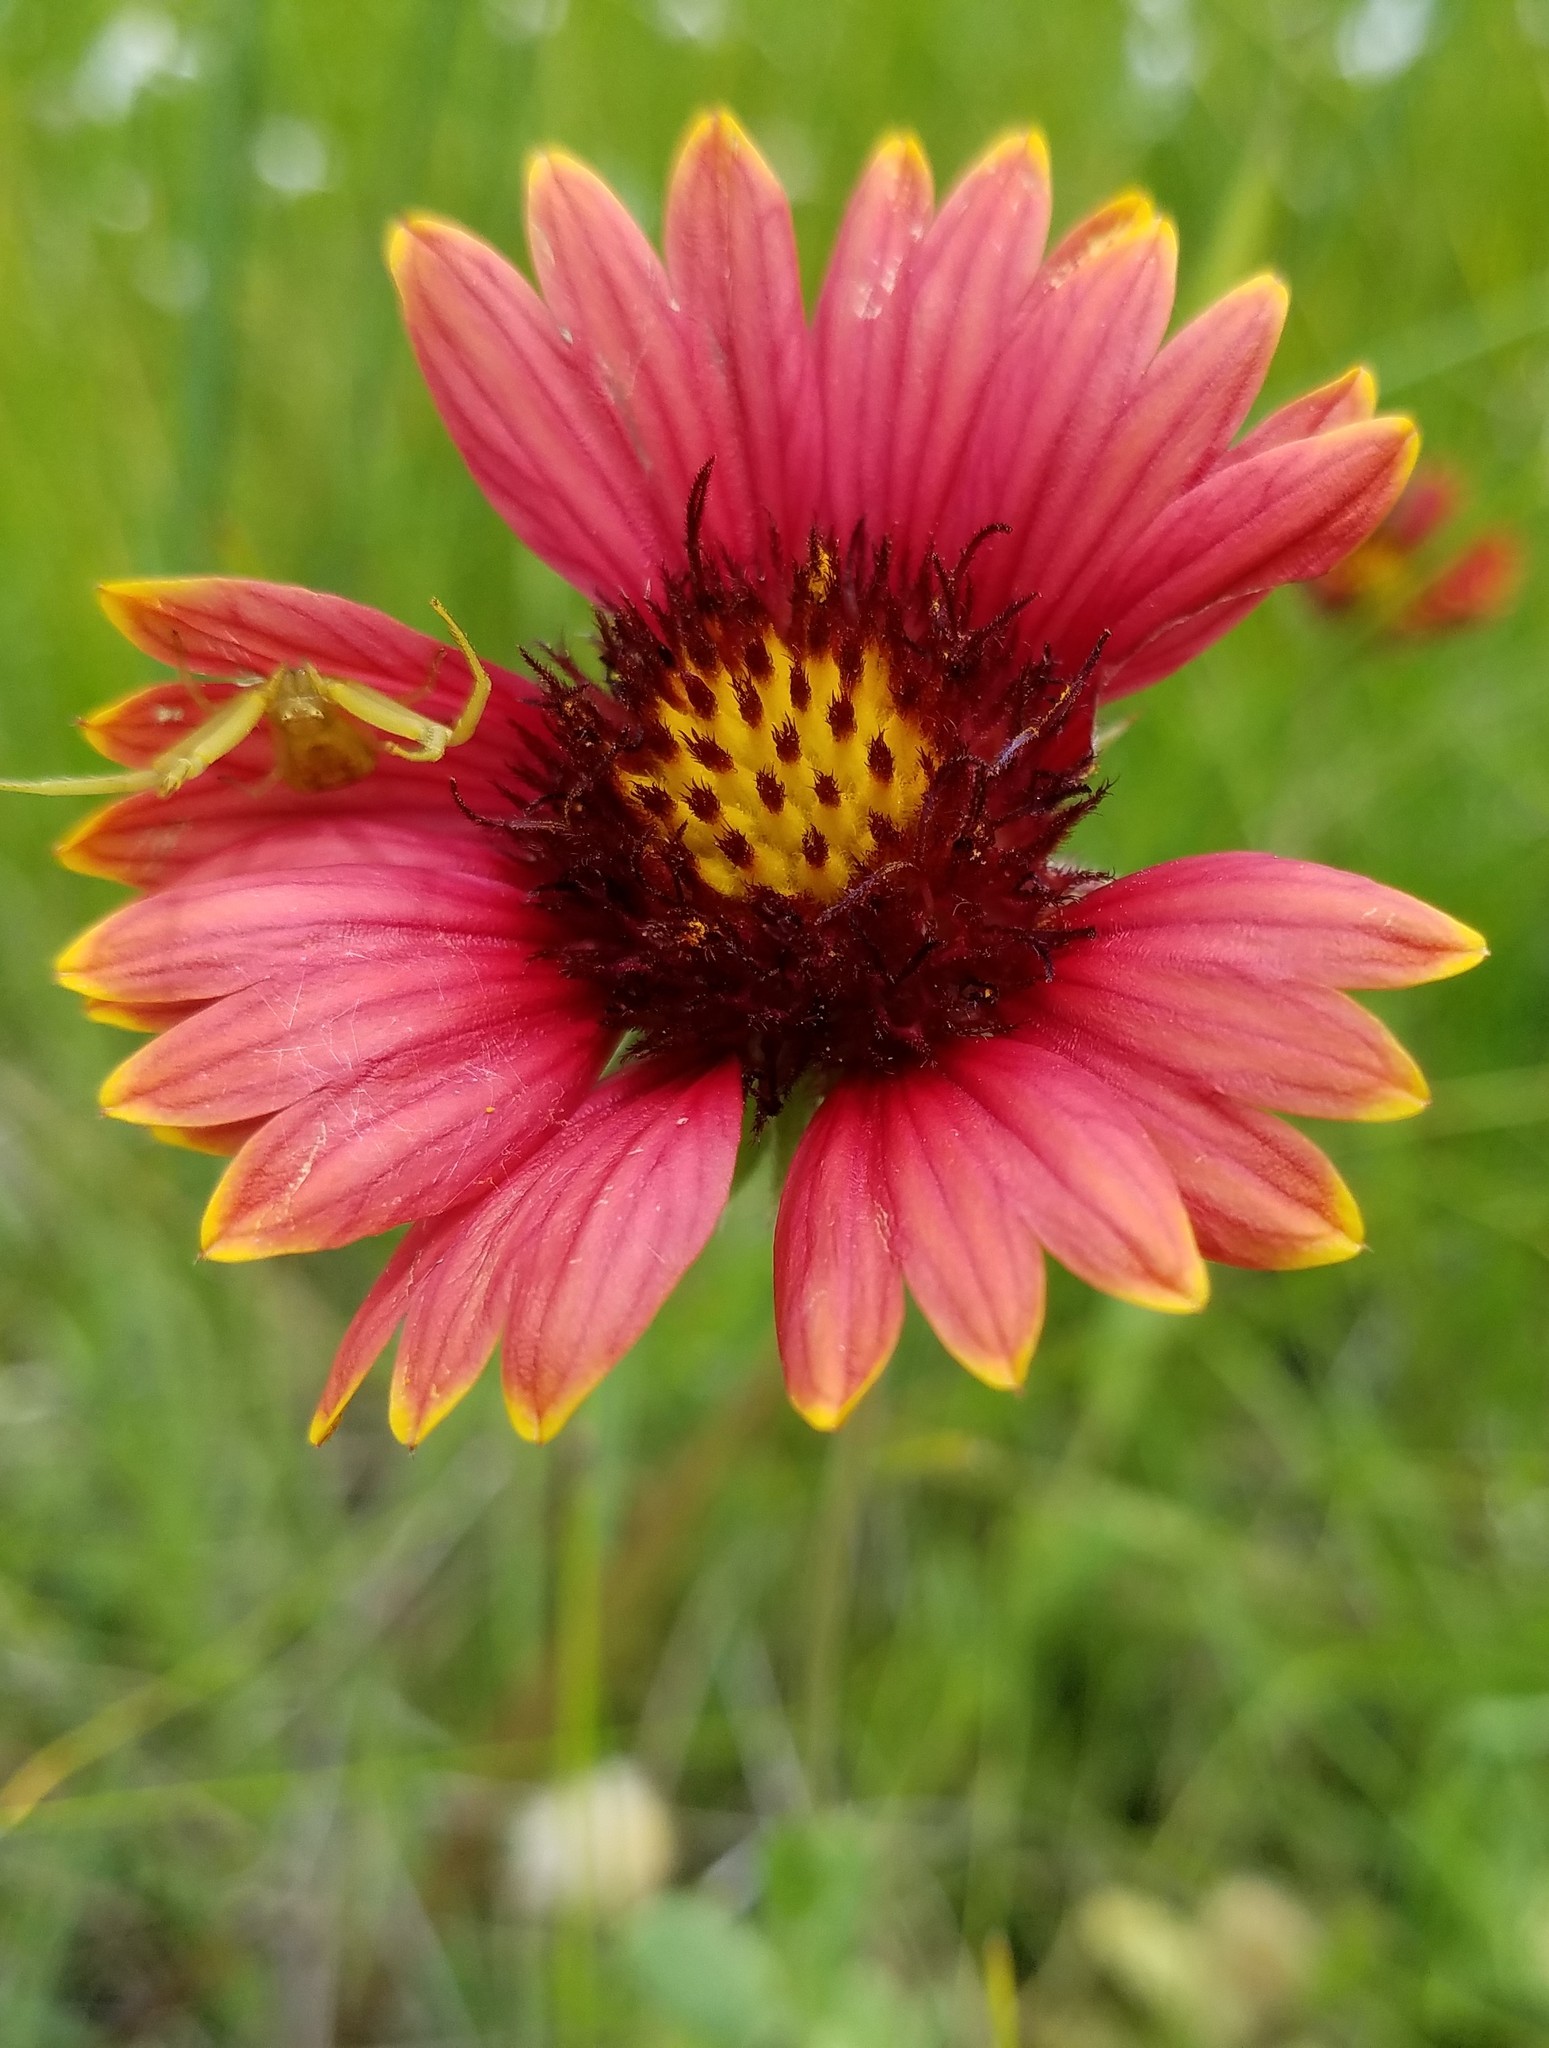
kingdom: Plantae
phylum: Tracheophyta
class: Magnoliopsida
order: Asterales
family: Asteraceae
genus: Gaillardia
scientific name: Gaillardia pulchella
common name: Firewheel
